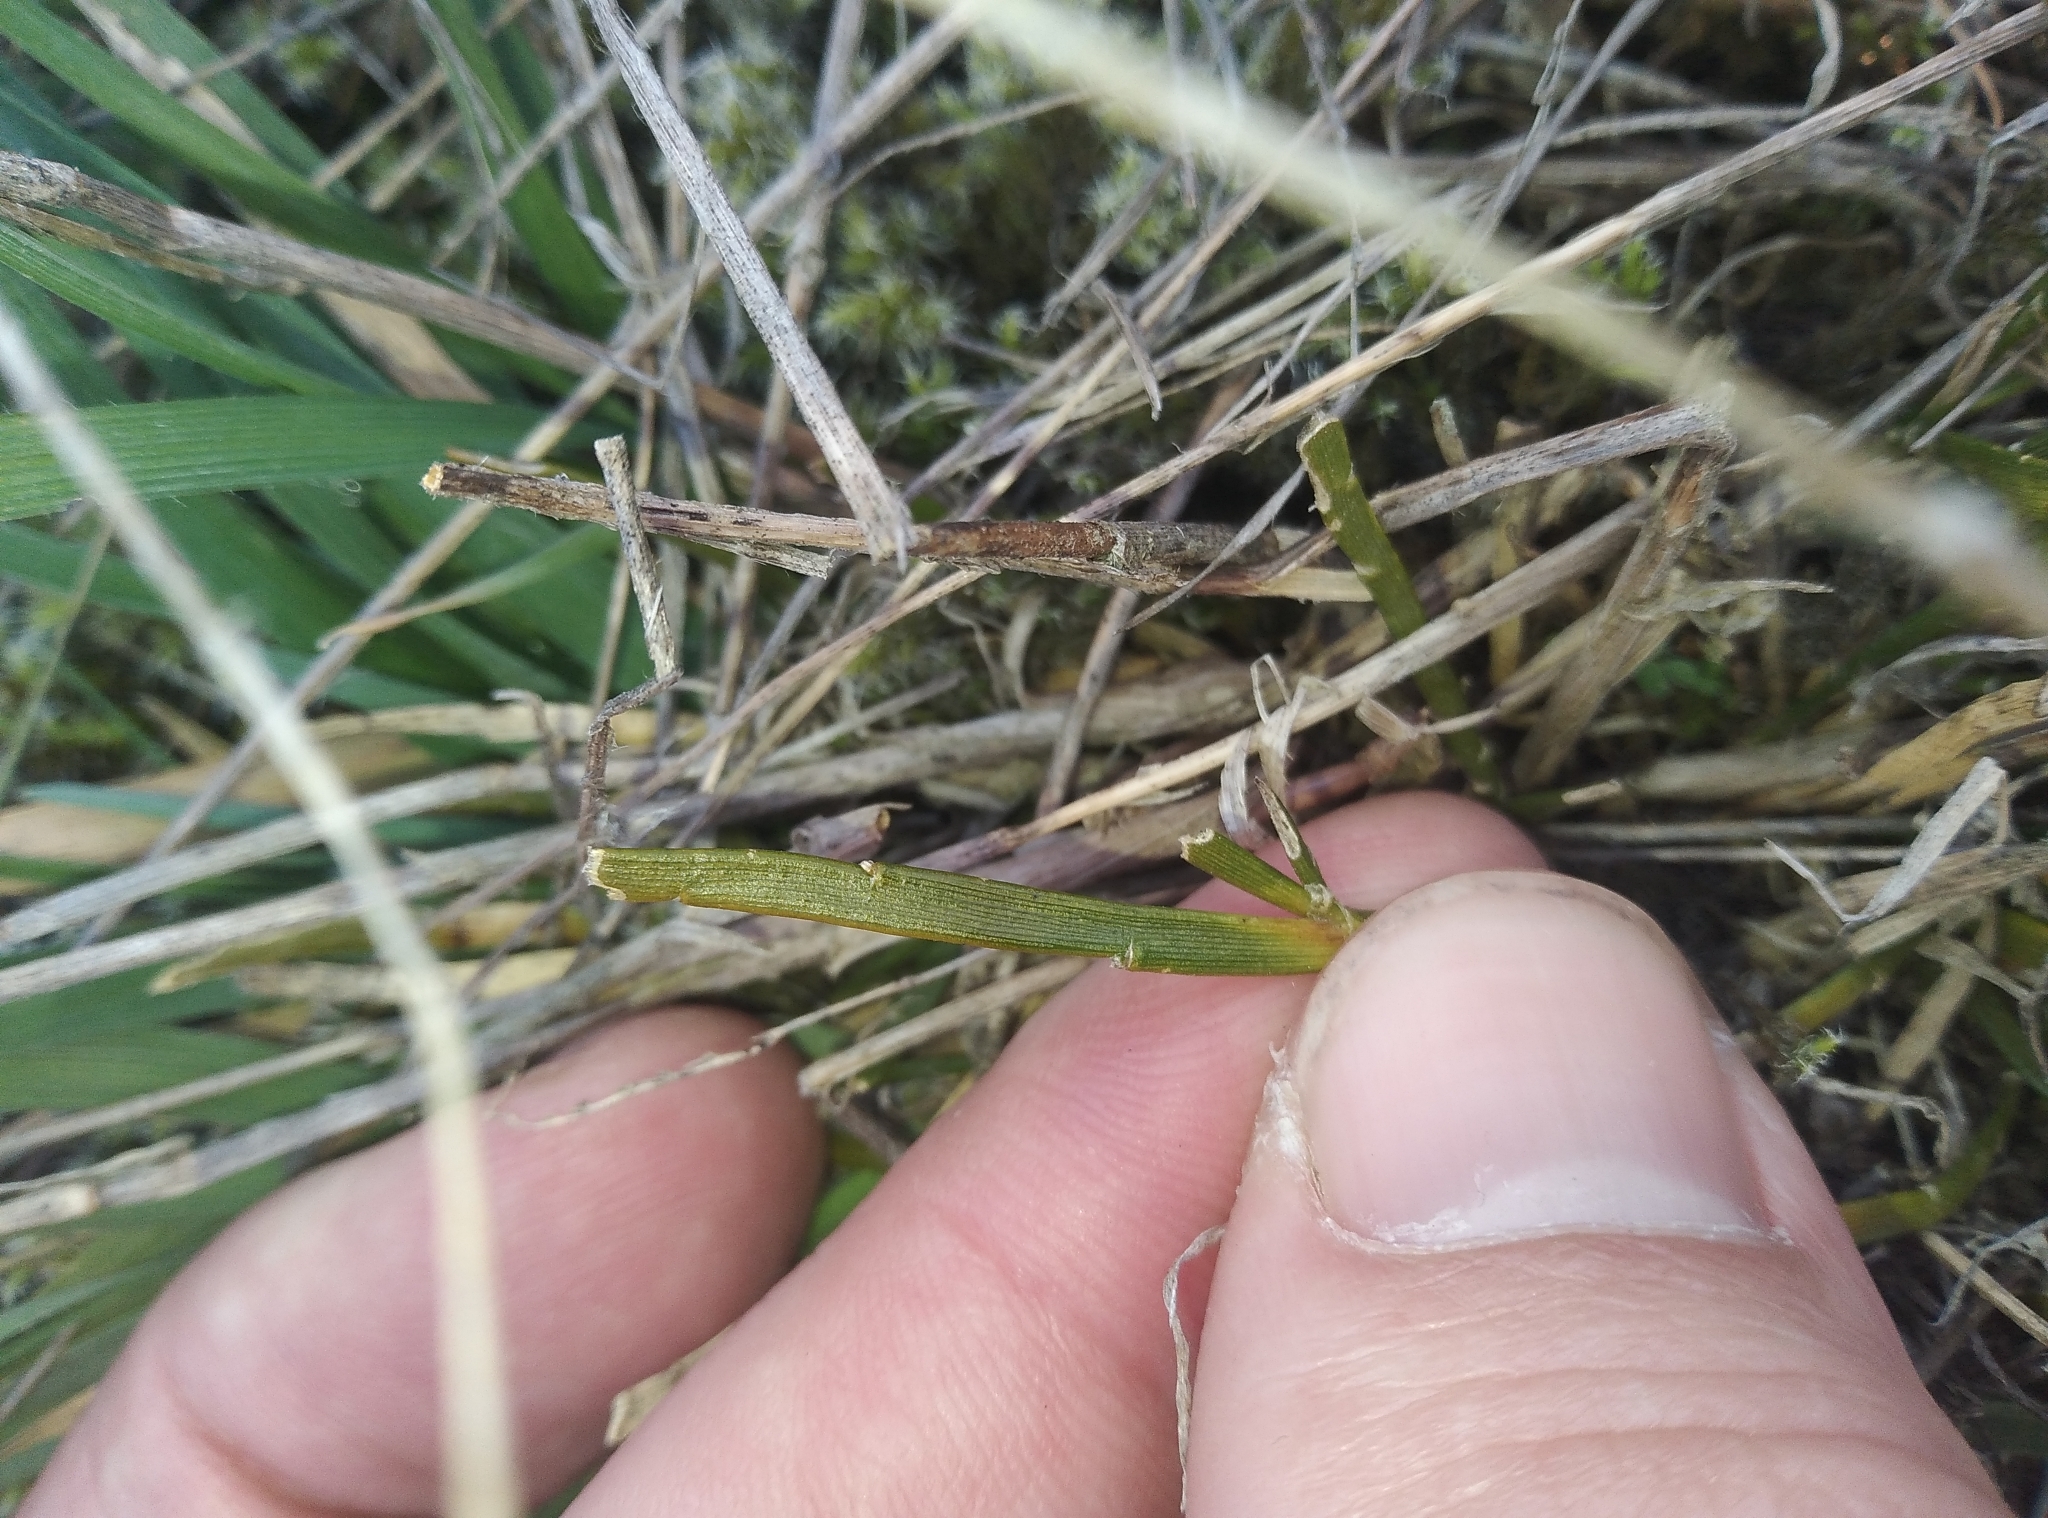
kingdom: Plantae
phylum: Tracheophyta
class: Magnoliopsida
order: Fabales
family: Fabaceae
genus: Carmichaelia
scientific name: Carmichaelia corrugata
